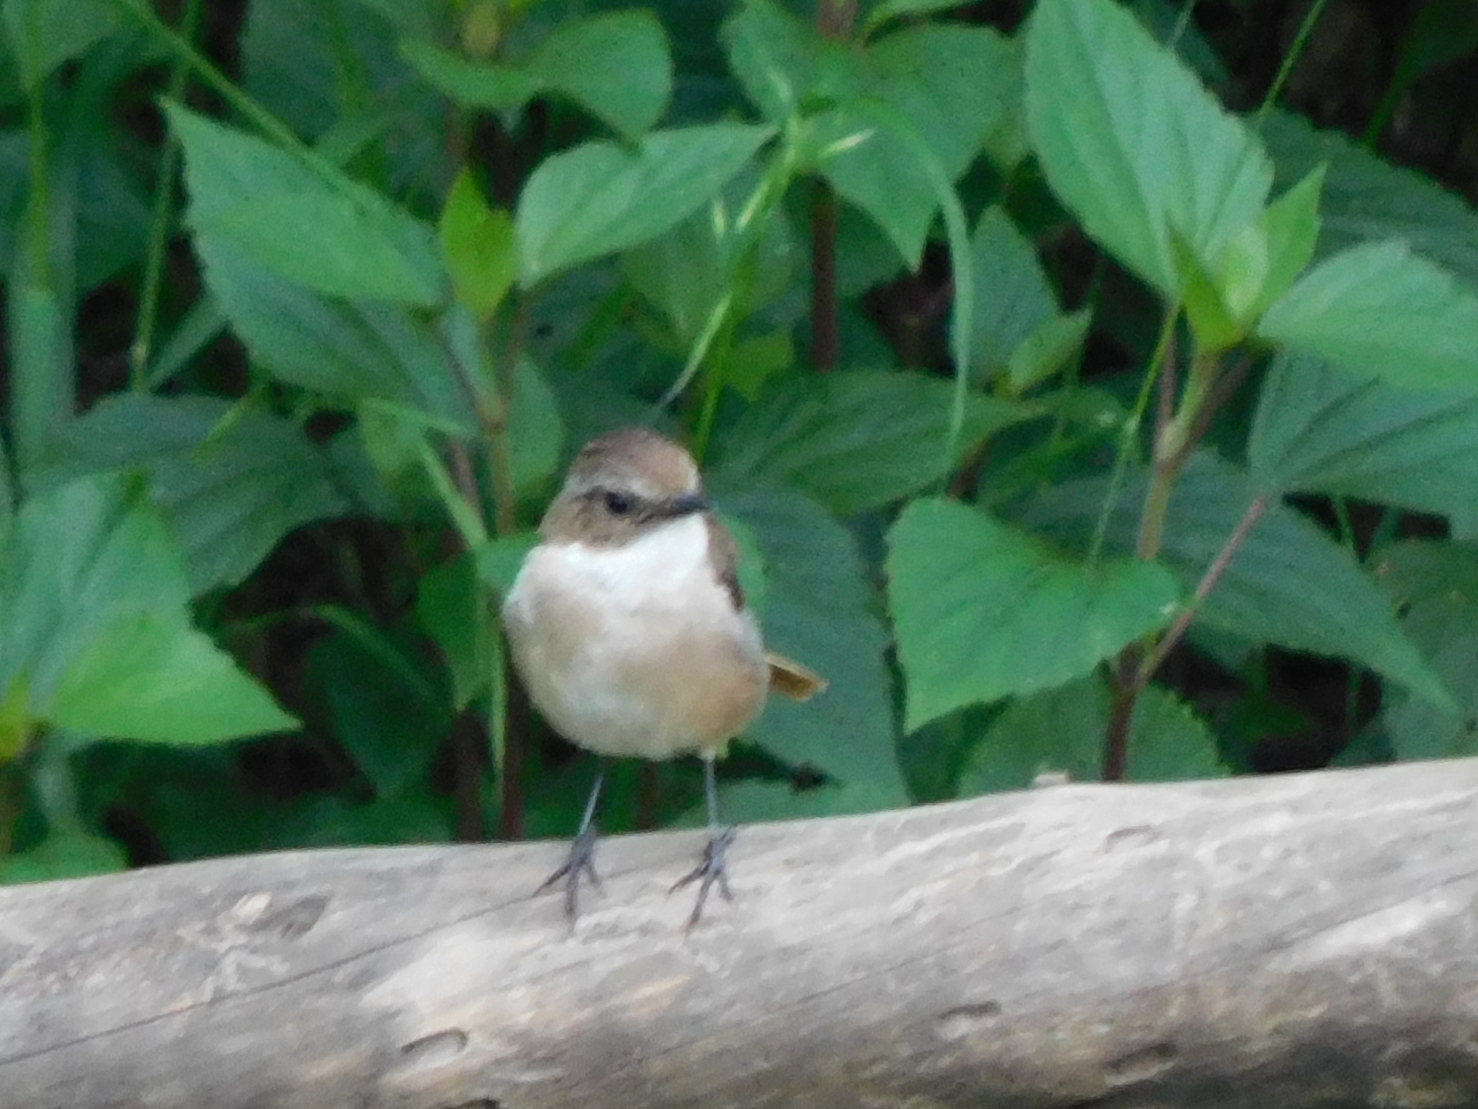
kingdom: Animalia
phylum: Chordata
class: Aves
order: Passeriformes
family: Muscicapidae
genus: Saxicola
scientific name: Saxicola ferreus
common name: Grey bush chat
